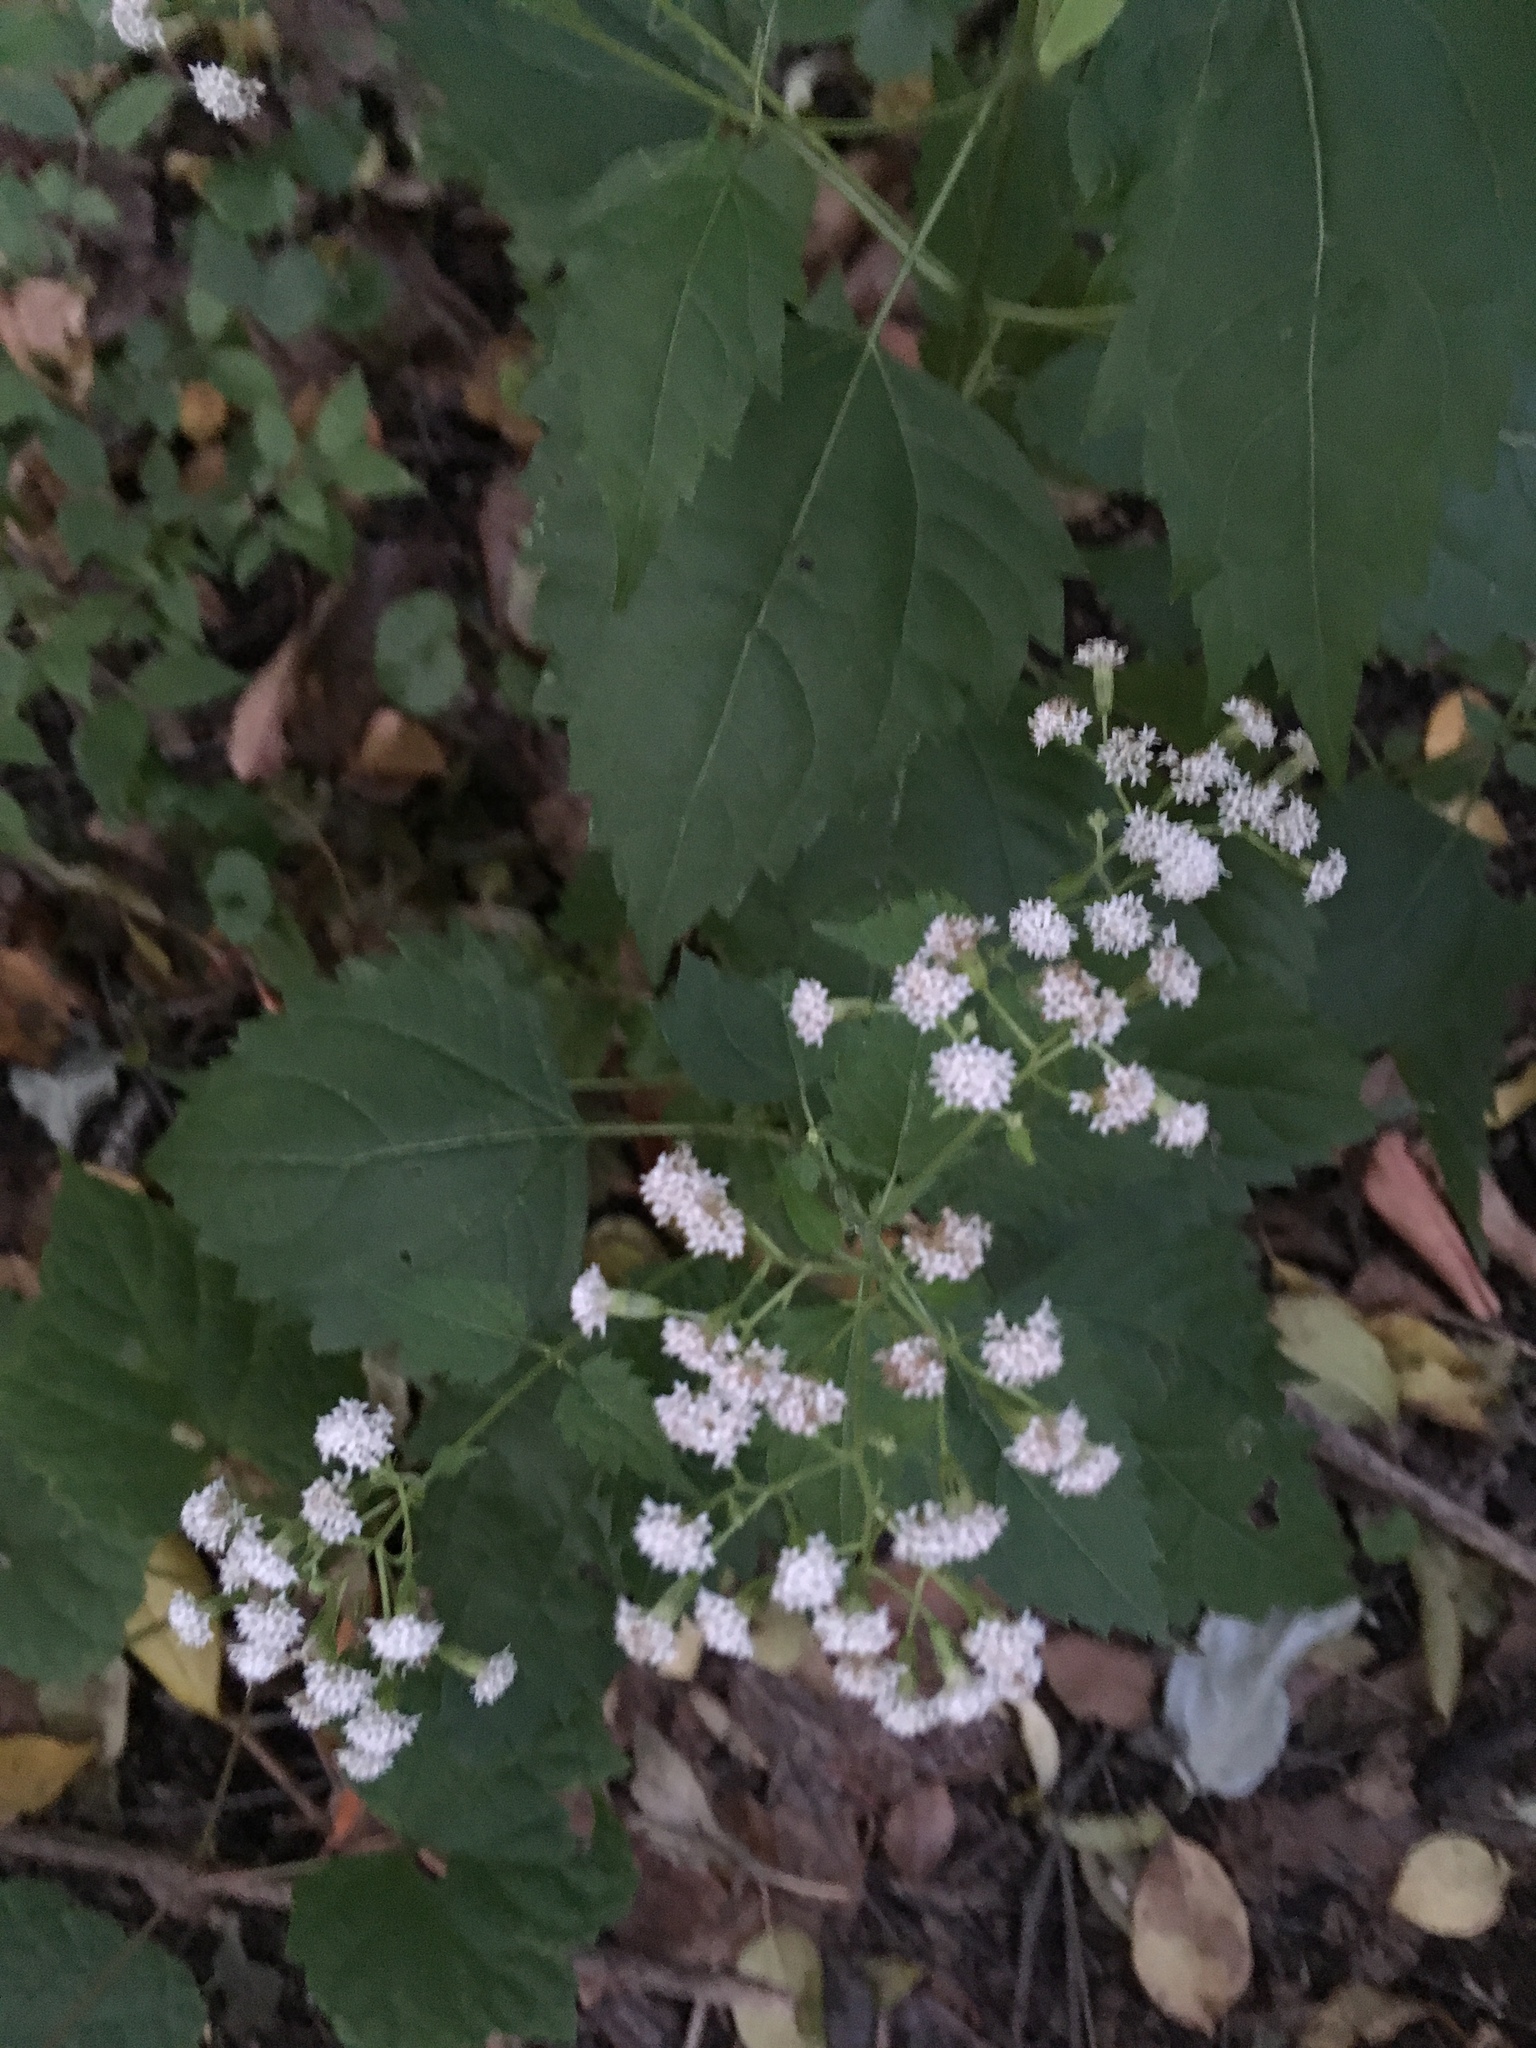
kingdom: Plantae
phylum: Tracheophyta
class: Magnoliopsida
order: Asterales
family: Asteraceae
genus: Ageratina
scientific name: Ageratina altissima
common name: White snakeroot
